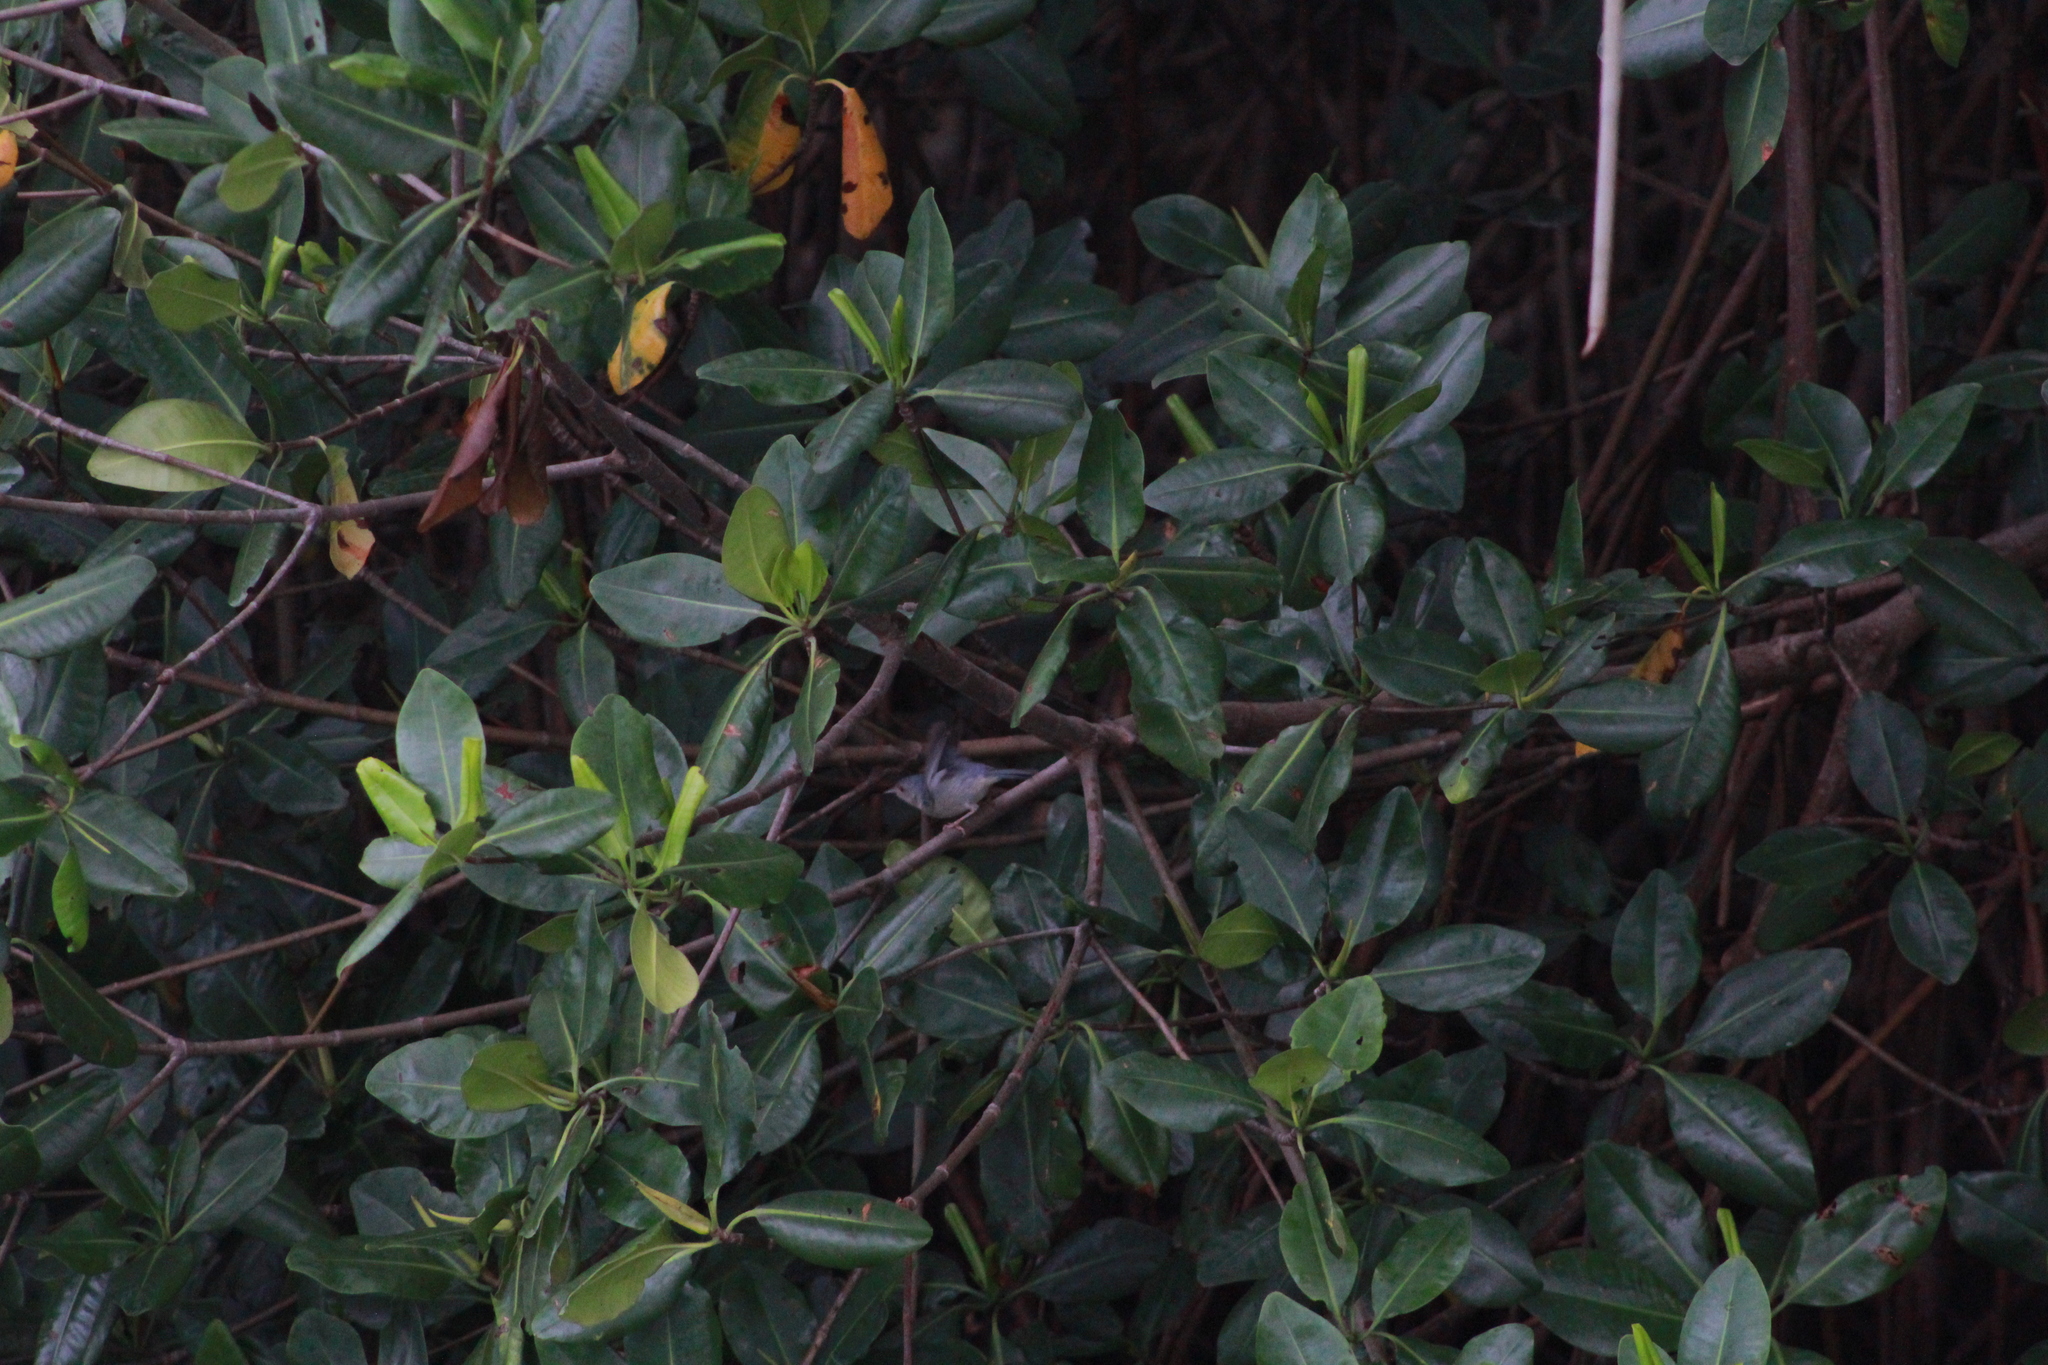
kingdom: Animalia
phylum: Chordata
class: Aves
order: Passeriformes
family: Thraupidae
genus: Conirostrum
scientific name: Conirostrum bicolor
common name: Bicolored conebill
